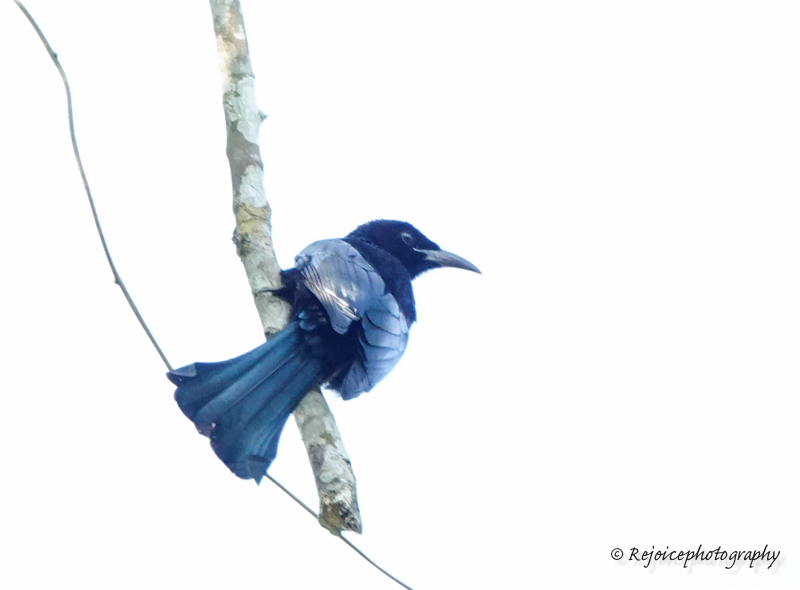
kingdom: Animalia
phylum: Chordata
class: Aves
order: Passeriformes
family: Dicruridae
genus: Dicrurus
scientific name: Dicrurus hottentottus
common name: Hair-crested drongo
